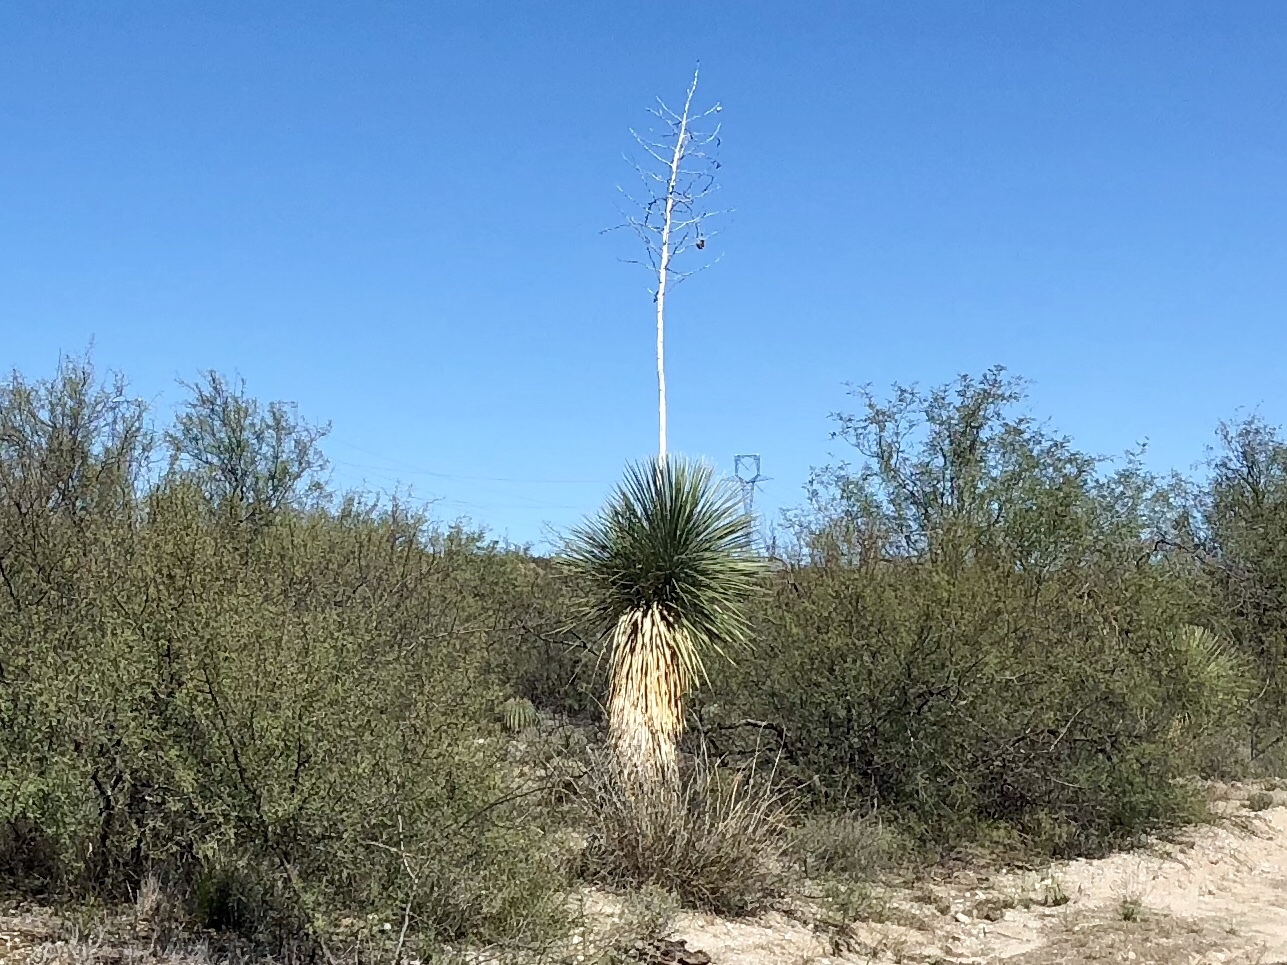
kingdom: Plantae
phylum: Tracheophyta
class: Liliopsida
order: Asparagales
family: Asparagaceae
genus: Yucca
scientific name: Yucca elata
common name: Palmella
